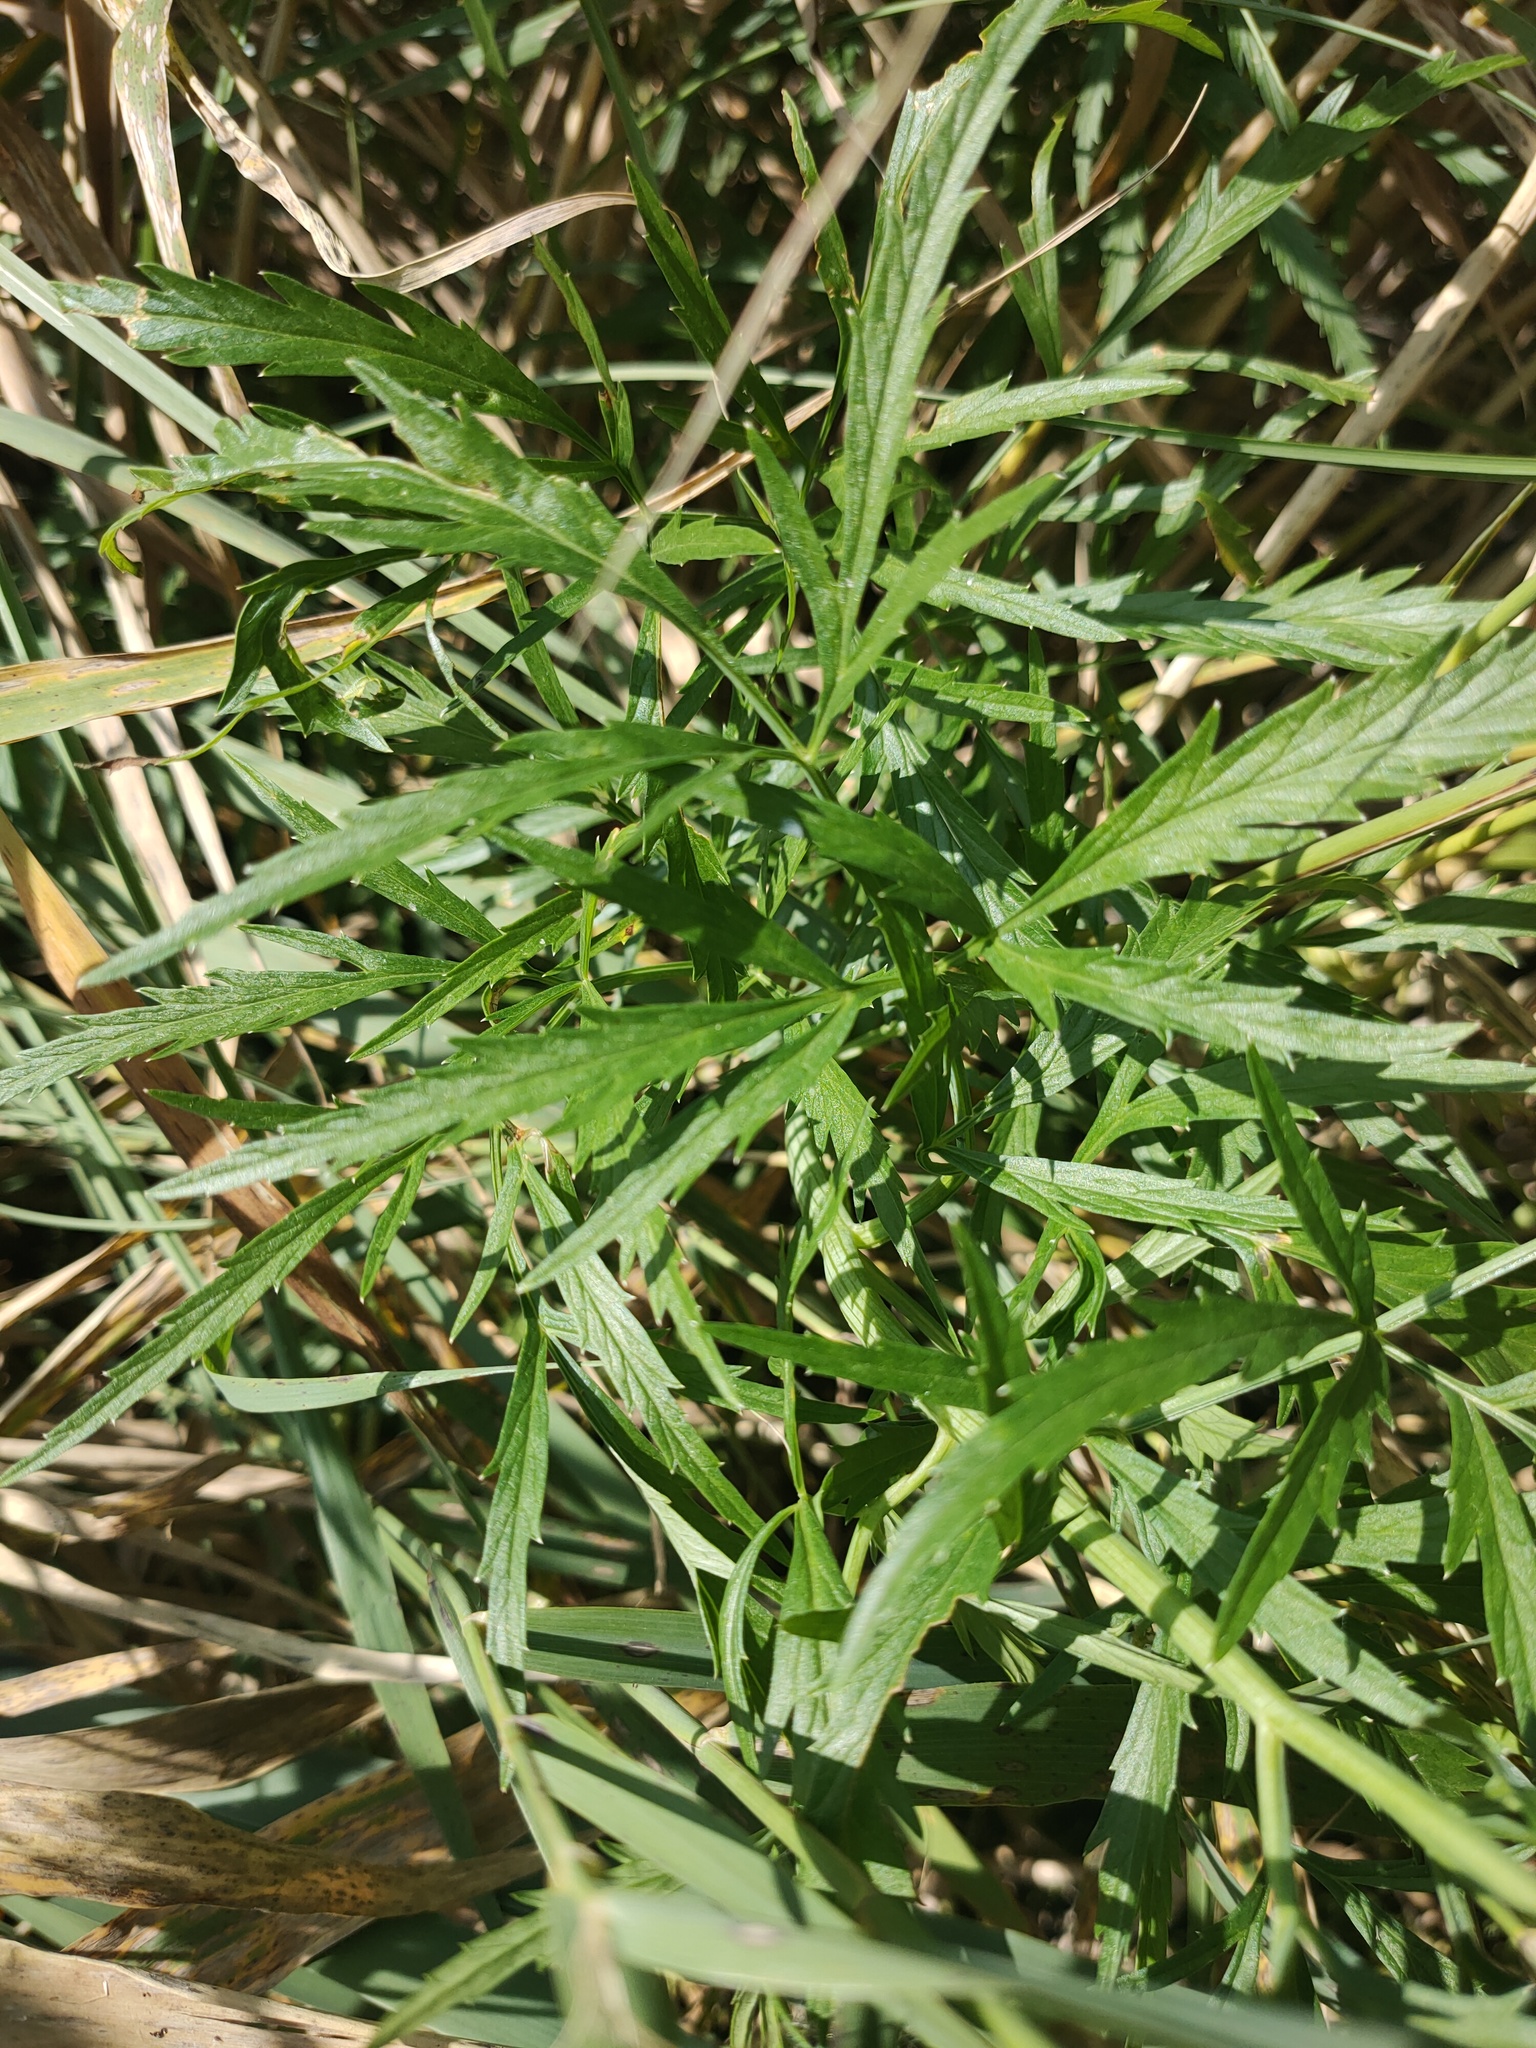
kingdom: Plantae
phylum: Tracheophyta
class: Magnoliopsida
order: Apiales
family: Apiaceae
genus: Cicuta
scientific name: Cicuta virosa
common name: Cowbane
